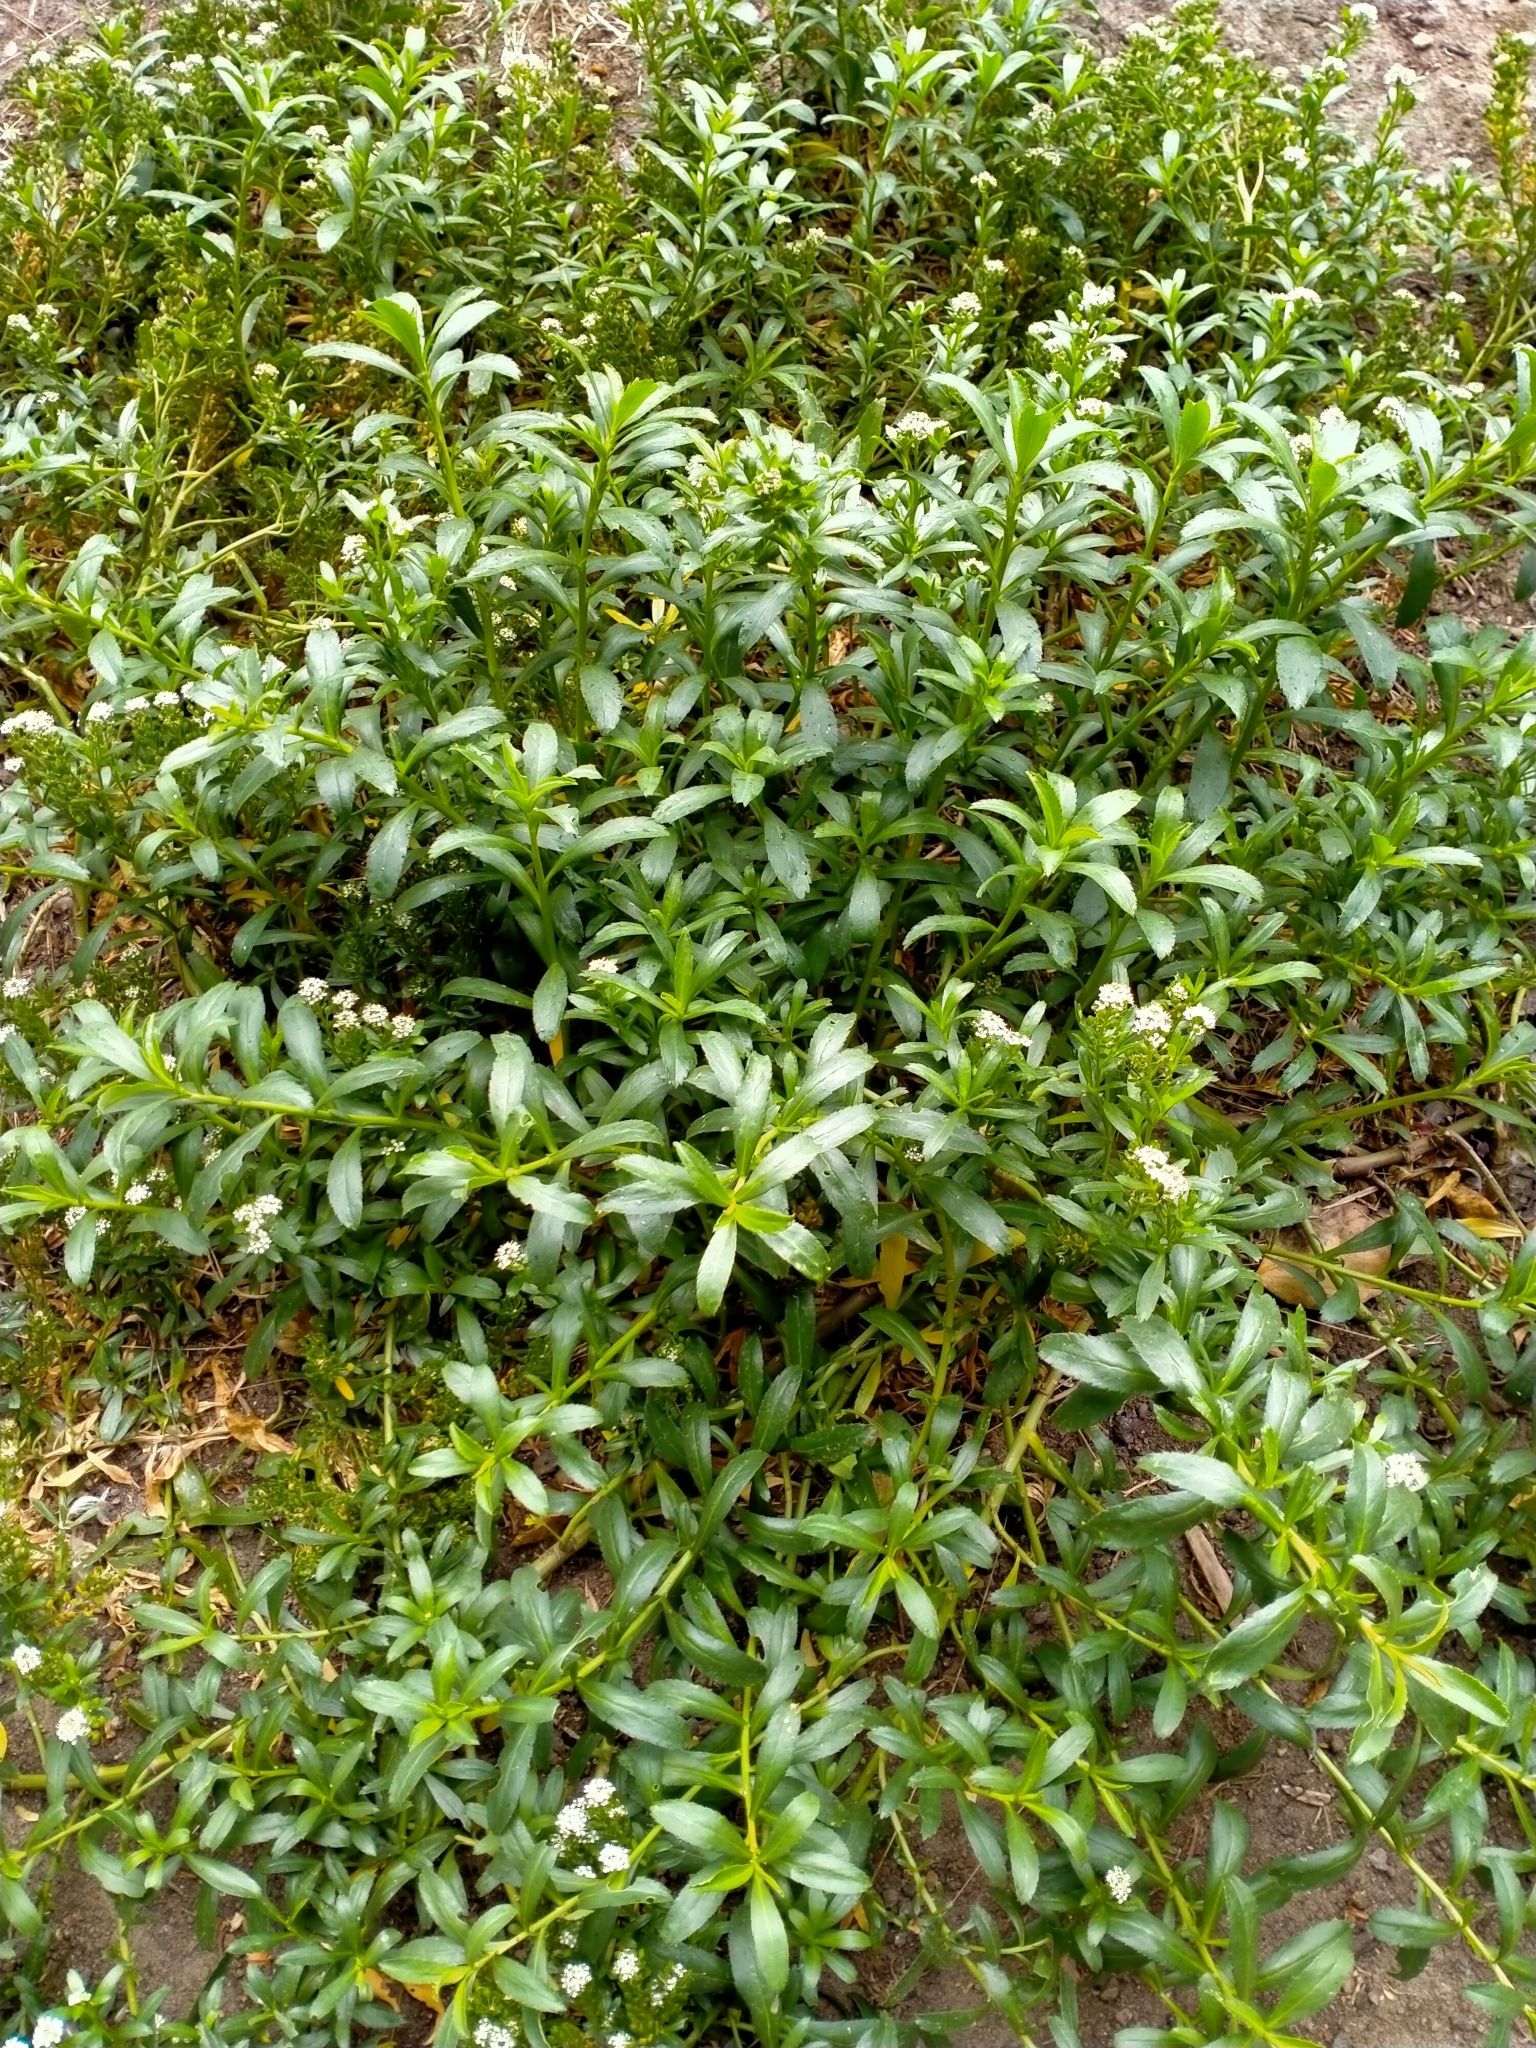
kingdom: Plantae
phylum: Tracheophyta
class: Magnoliopsida
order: Brassicales
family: Brassicaceae
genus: Lepidium
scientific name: Lepidium juvencum
